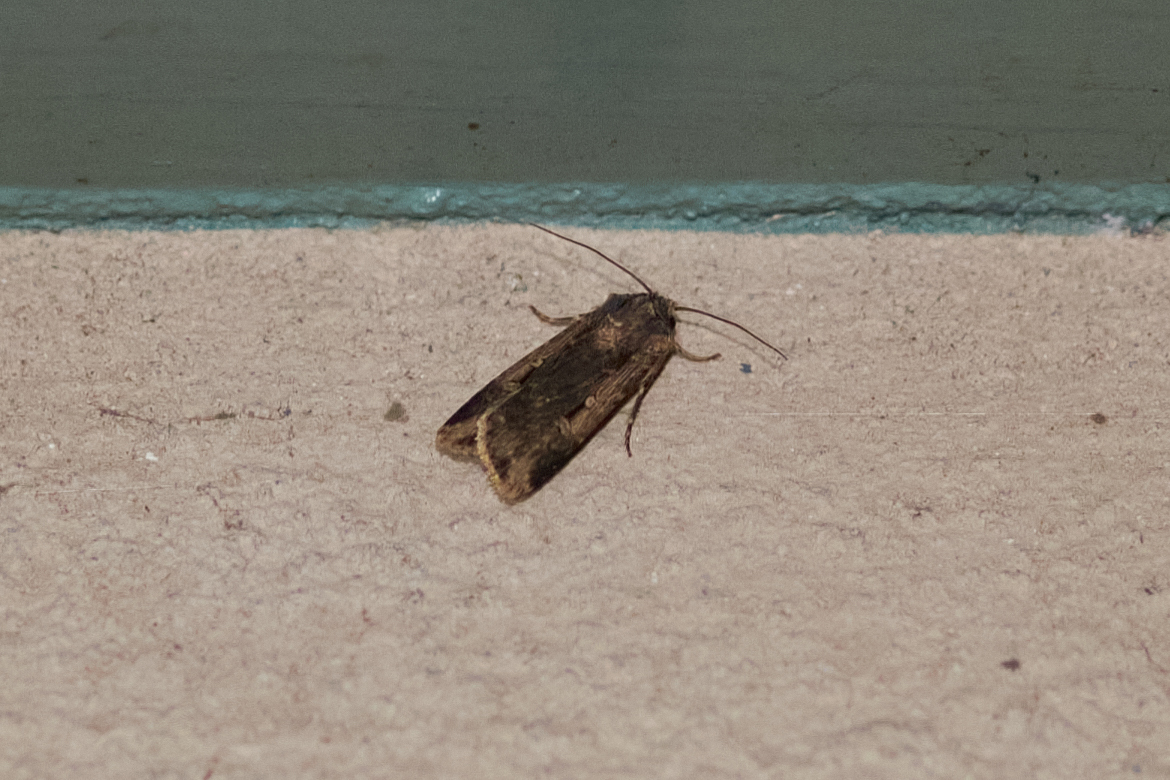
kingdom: Animalia
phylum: Arthropoda
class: Insecta
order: Lepidoptera
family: Noctuidae
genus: Feltia
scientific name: Feltia subterranea
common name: Granulate cutworm
